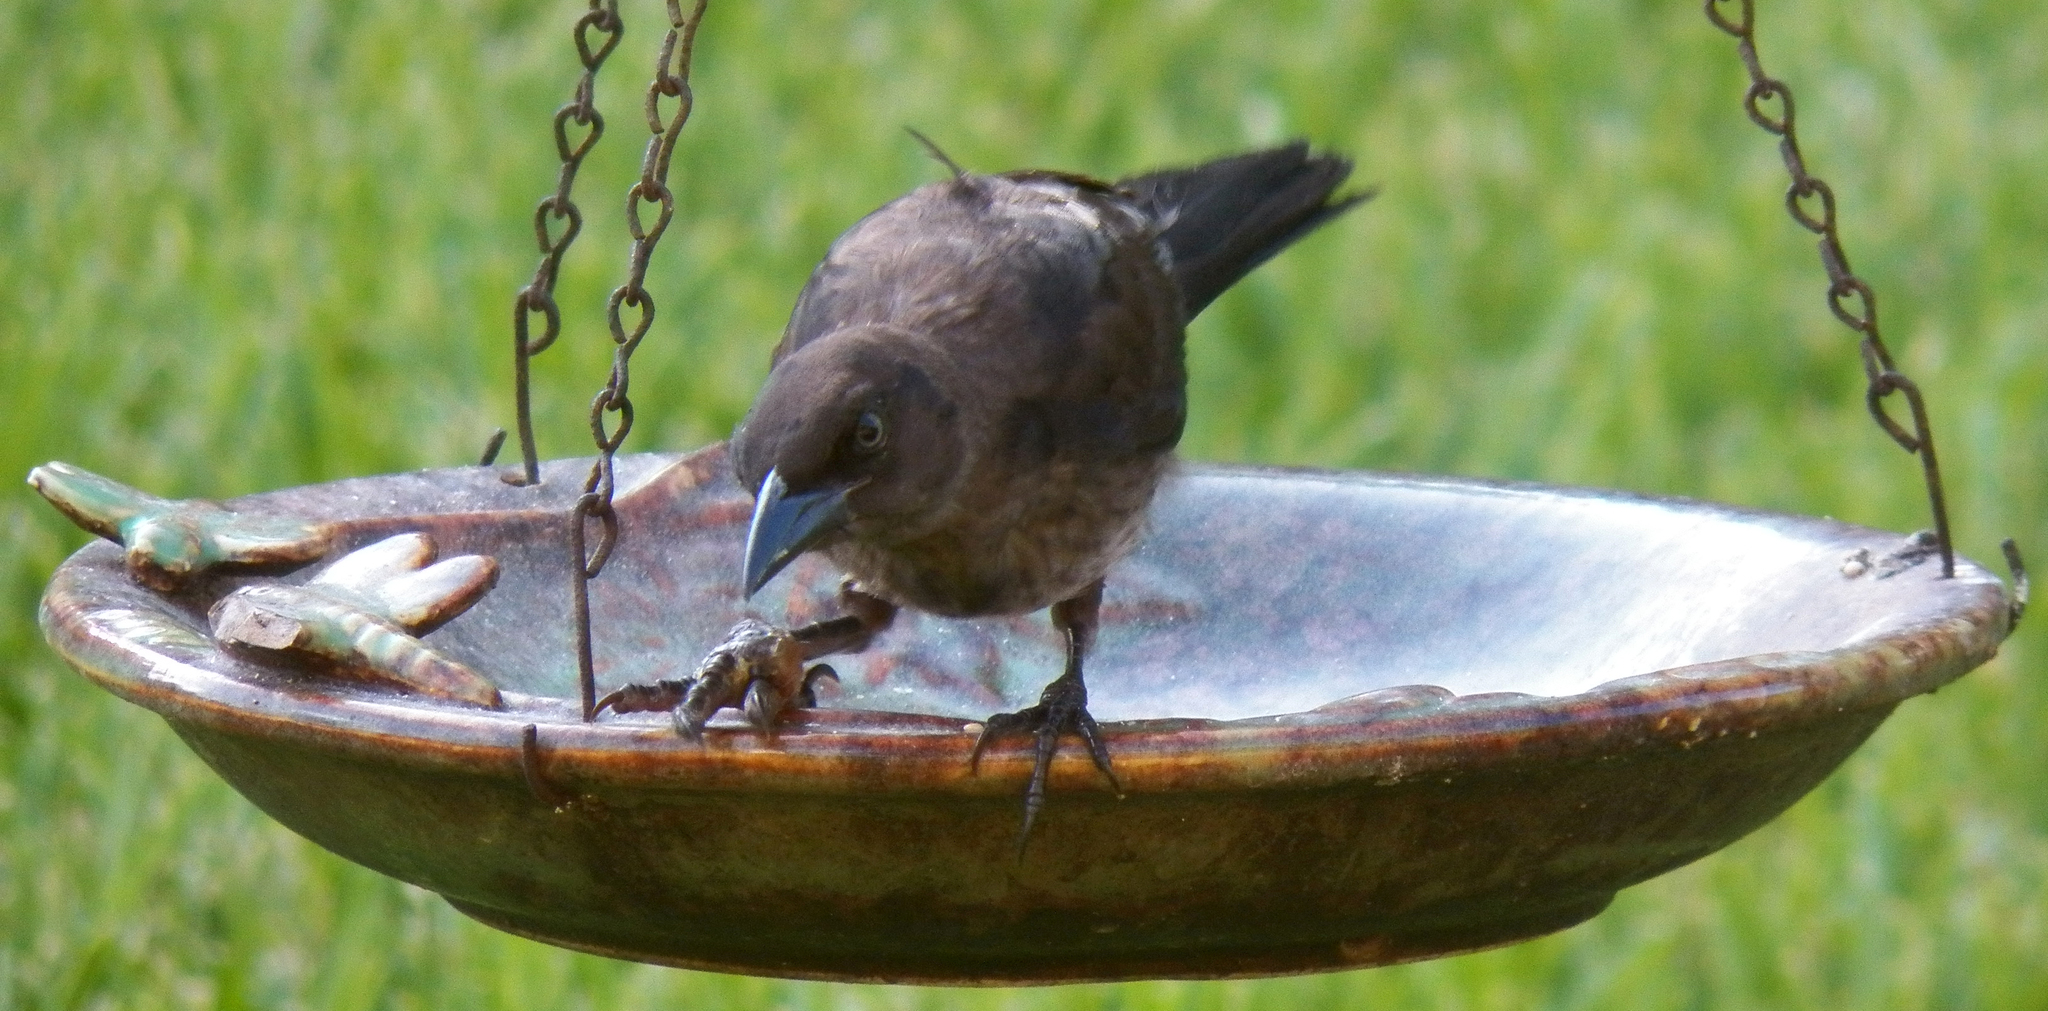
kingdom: Animalia
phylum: Chordata
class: Aves
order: Passeriformes
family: Icteridae
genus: Quiscalus
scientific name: Quiscalus mexicanus
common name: Great-tailed grackle
